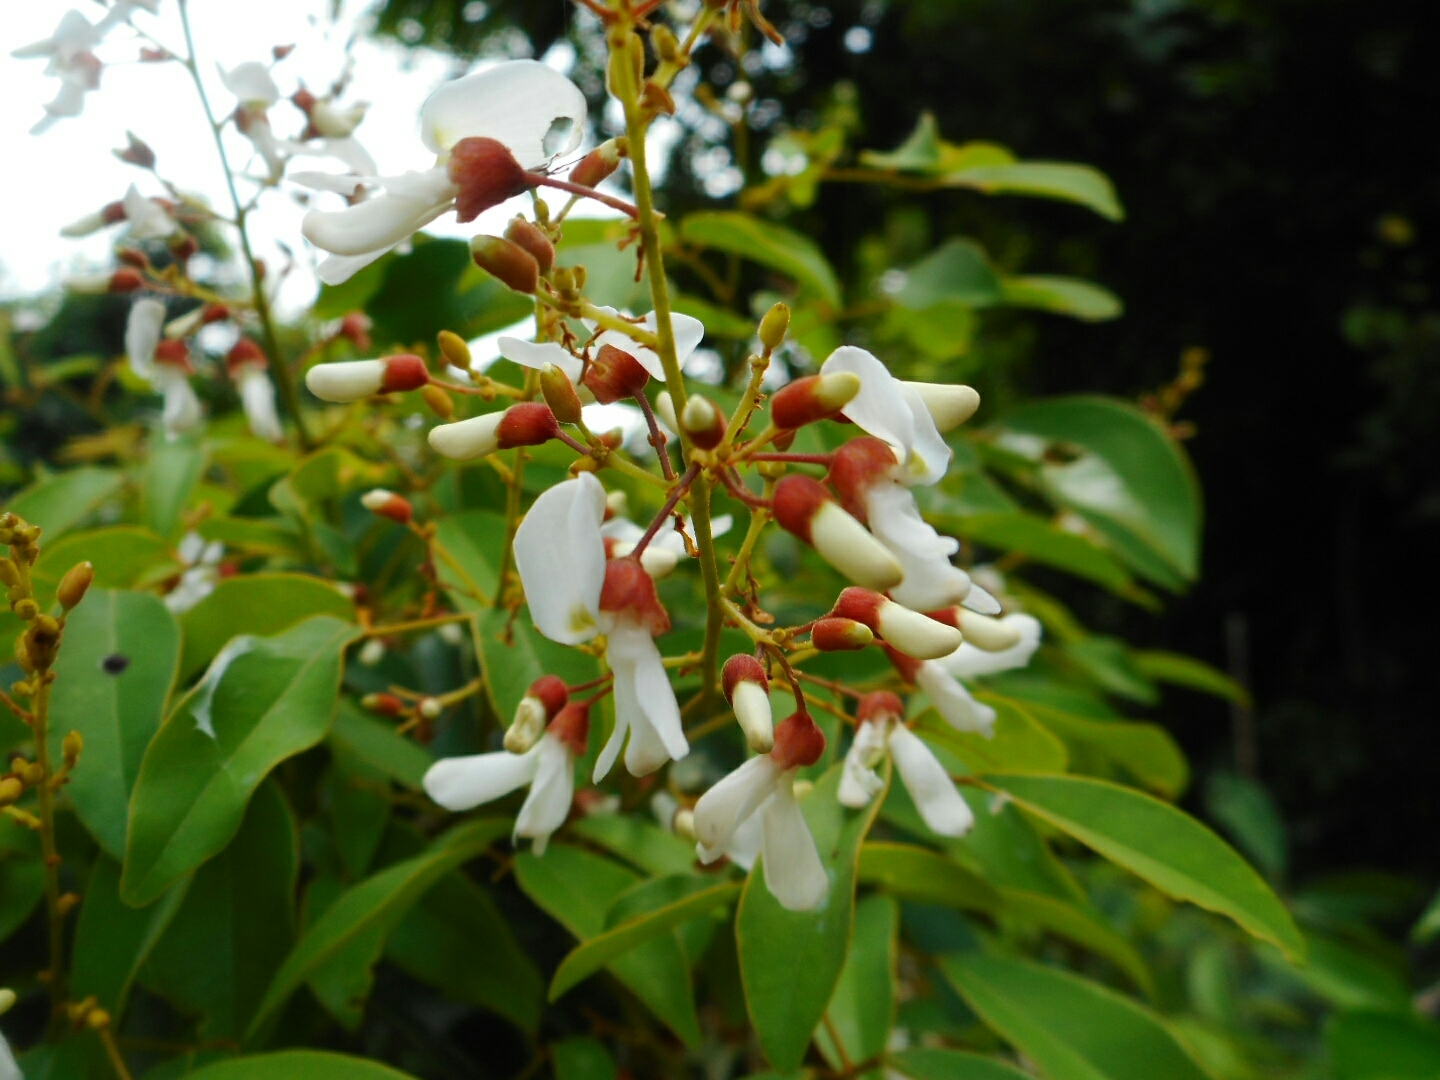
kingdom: Plantae
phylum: Tracheophyta
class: Magnoliopsida
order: Fabales
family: Fabaceae
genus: Derris
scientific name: Derris alborubra
